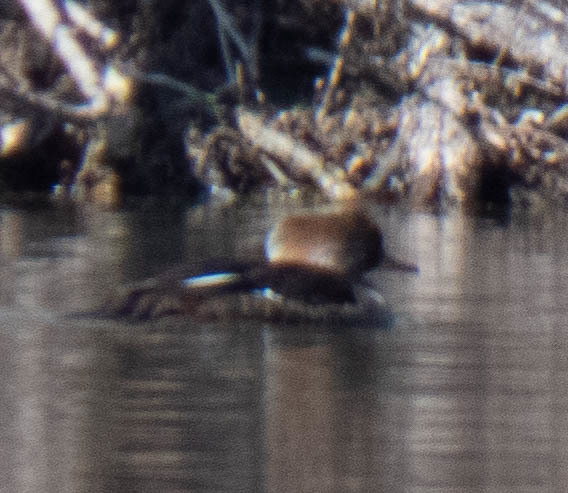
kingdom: Animalia
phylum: Chordata
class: Aves
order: Anseriformes
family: Anatidae
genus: Lophodytes
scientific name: Lophodytes cucullatus
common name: Hooded merganser
